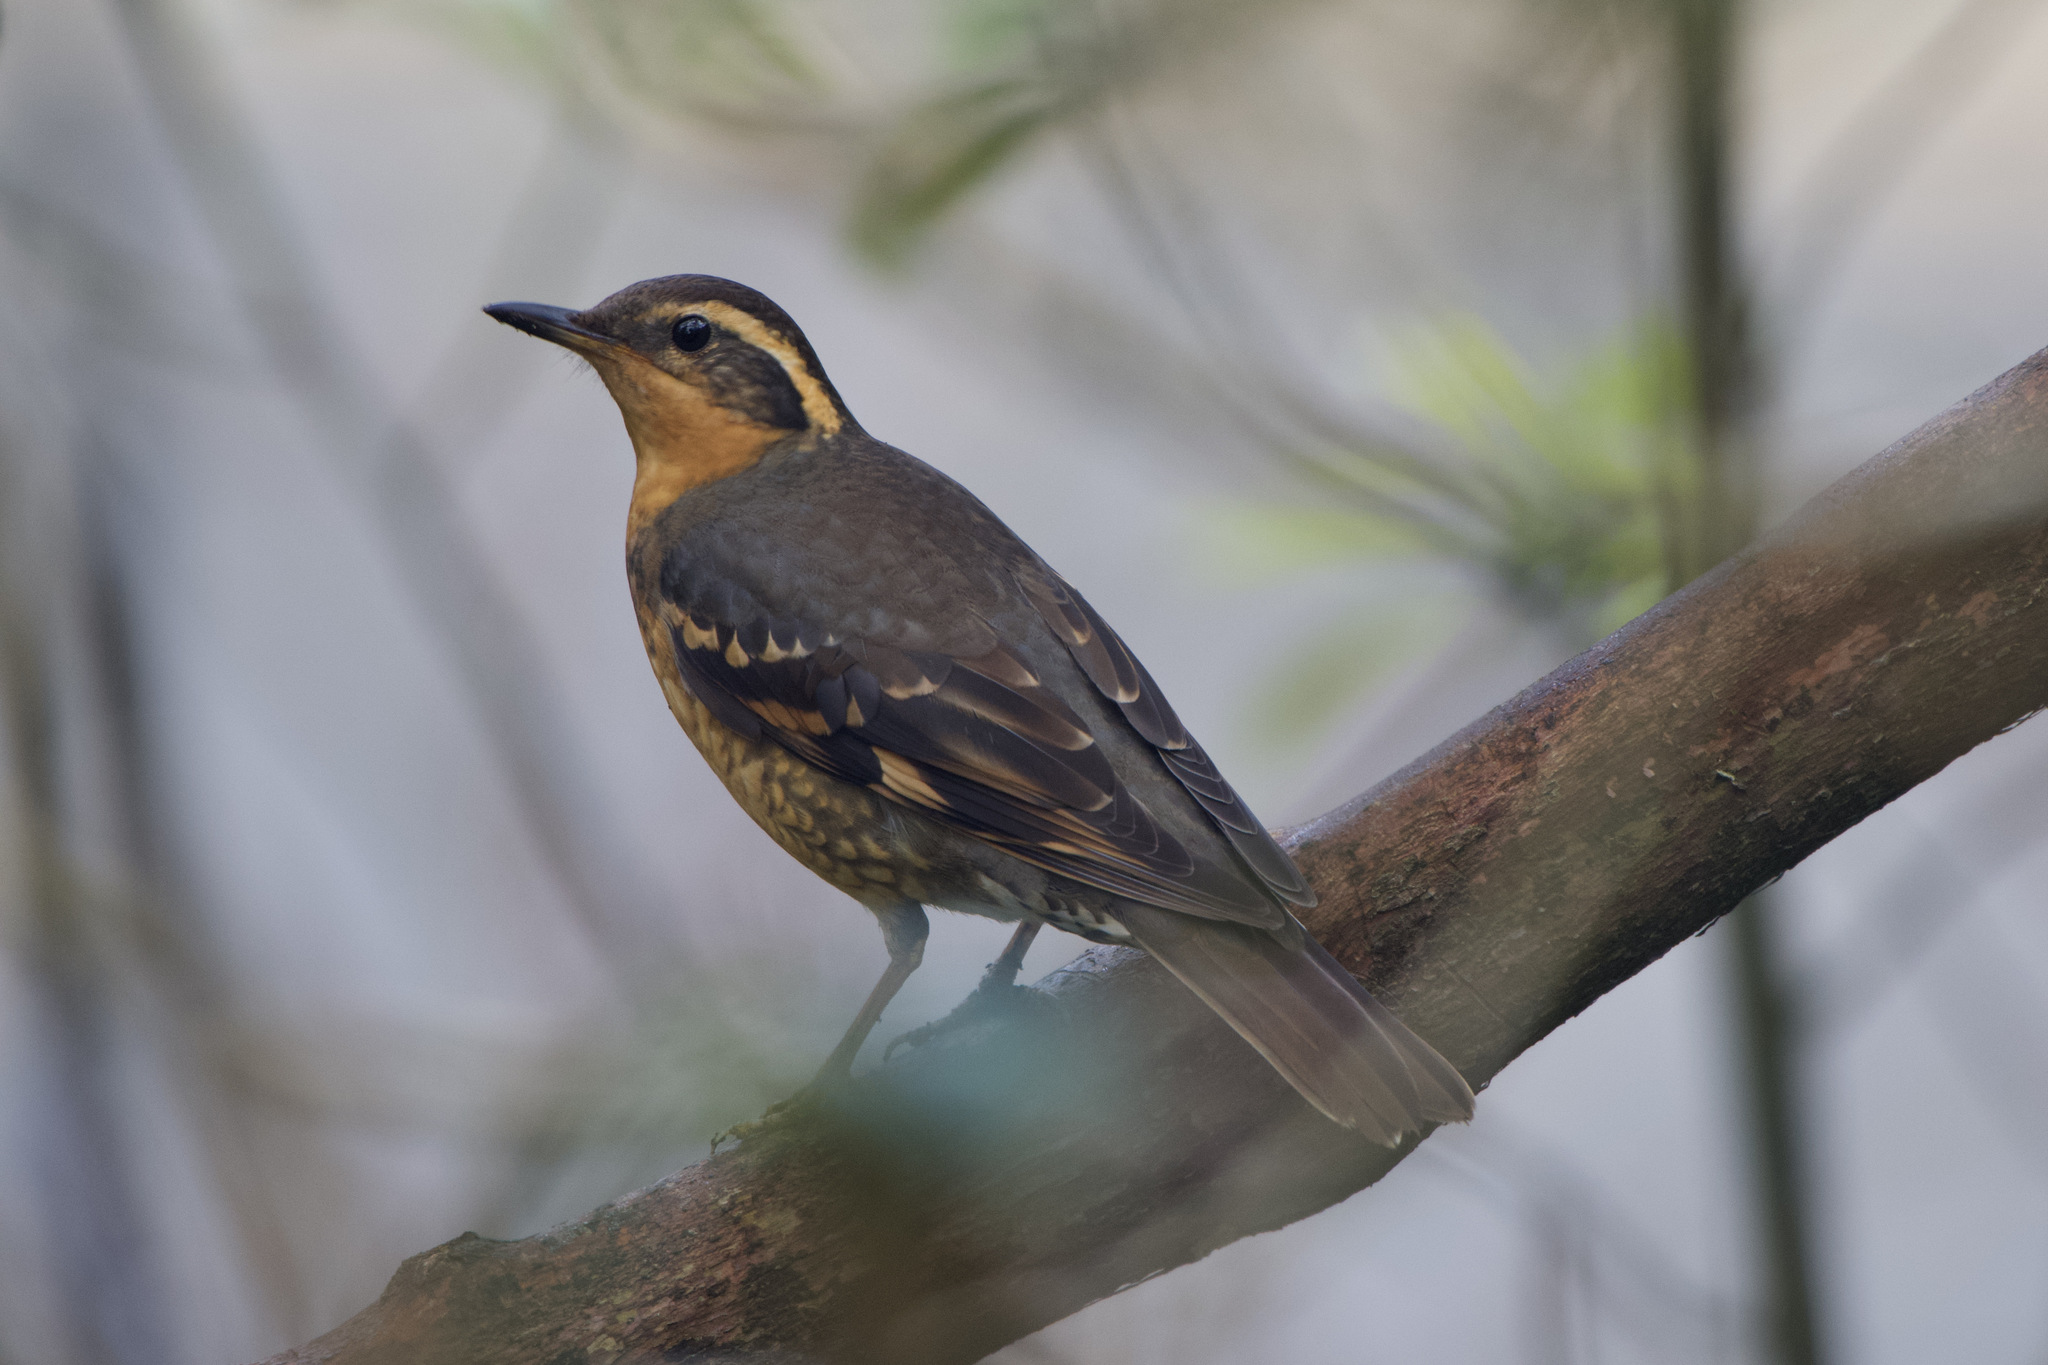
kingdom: Animalia
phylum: Chordata
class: Aves
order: Passeriformes
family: Turdidae
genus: Ixoreus
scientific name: Ixoreus naevius
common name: Varied thrush
